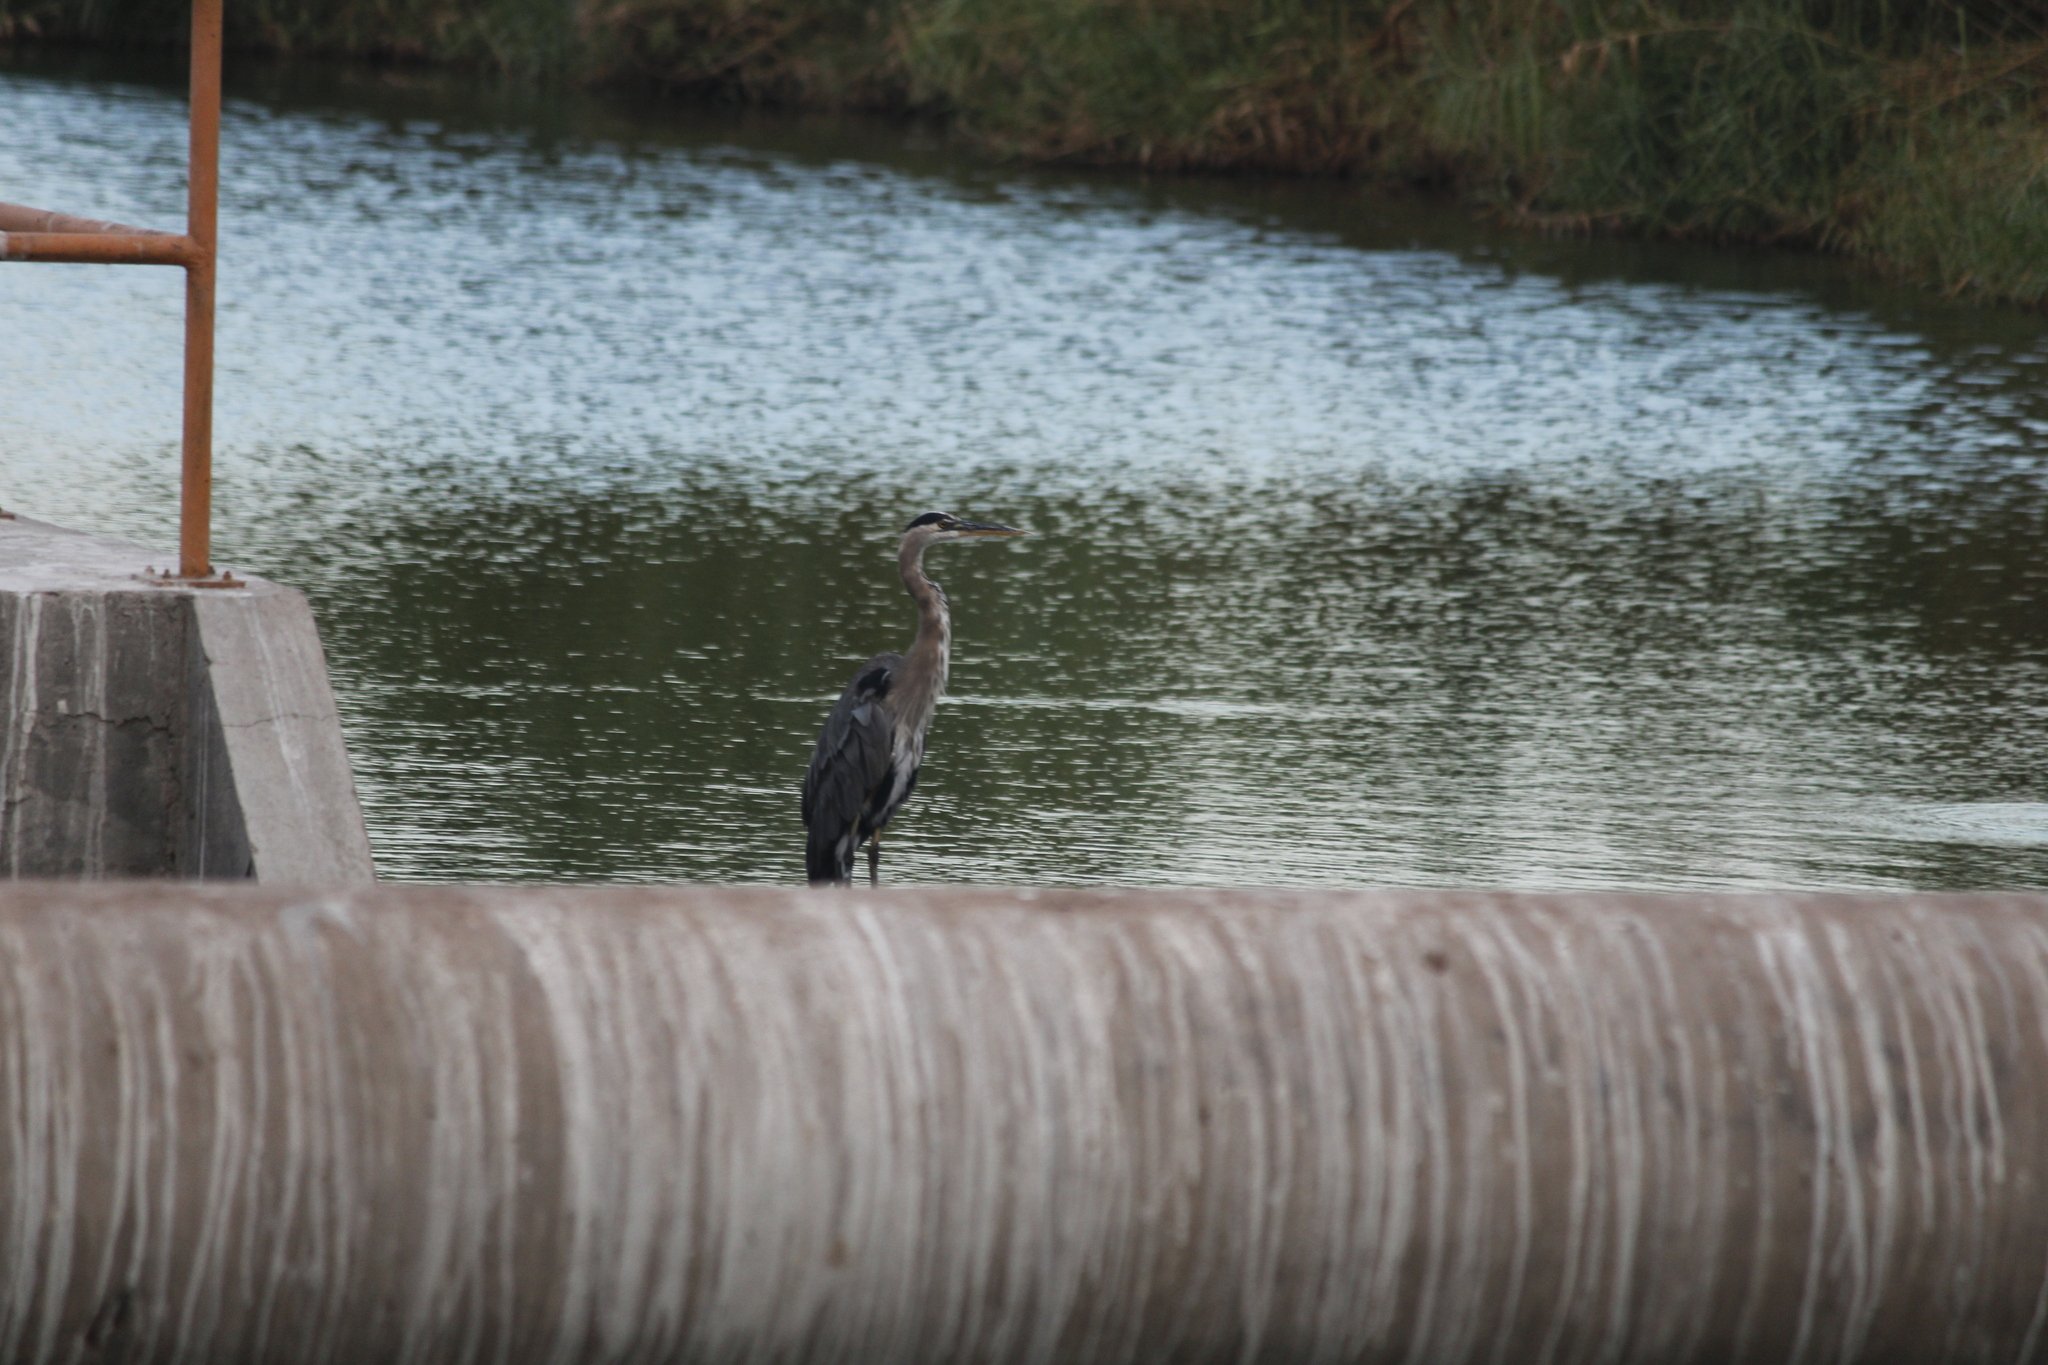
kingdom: Animalia
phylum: Chordata
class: Aves
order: Pelecaniformes
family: Ardeidae
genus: Ardea
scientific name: Ardea herodias
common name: Great blue heron
